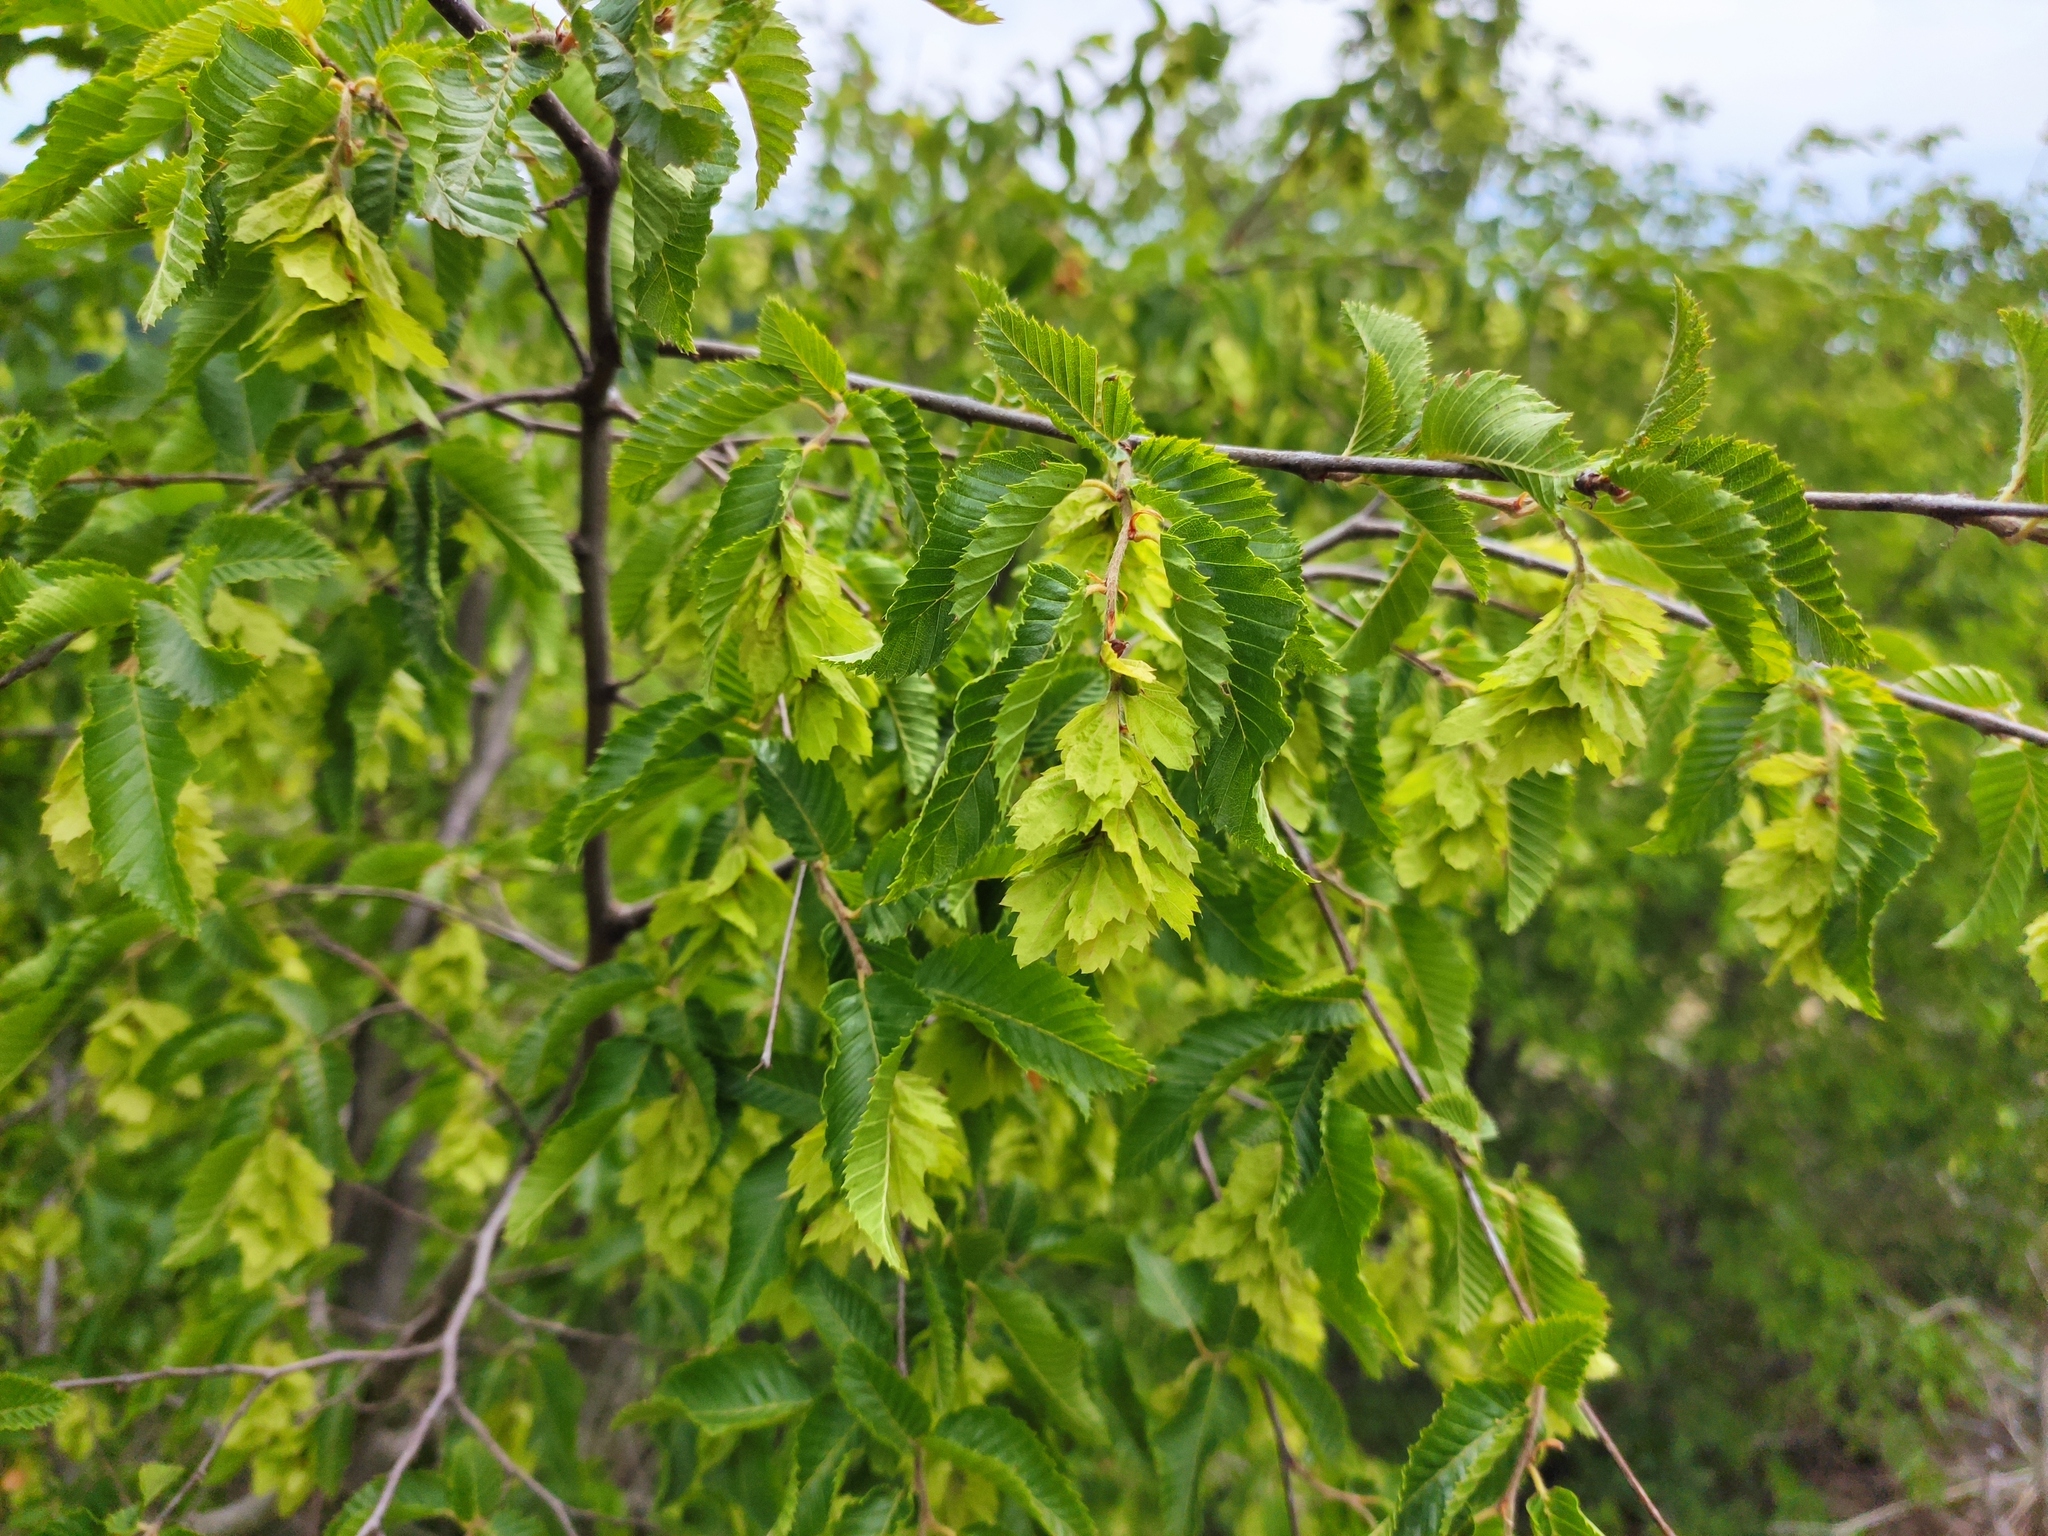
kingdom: Plantae
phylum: Tracheophyta
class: Magnoliopsida
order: Fagales
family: Betulaceae
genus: Carpinus
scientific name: Carpinus orientalis
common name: Eastern hornbeam
